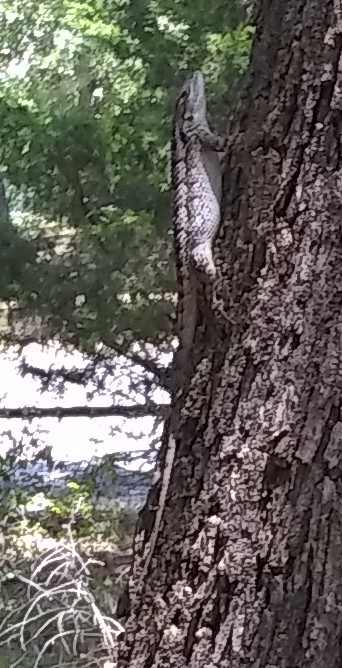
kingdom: Animalia
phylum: Chordata
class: Squamata
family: Phrynosomatidae
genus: Sceloporus
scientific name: Sceloporus olivaceus
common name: Texas spiny lizard
